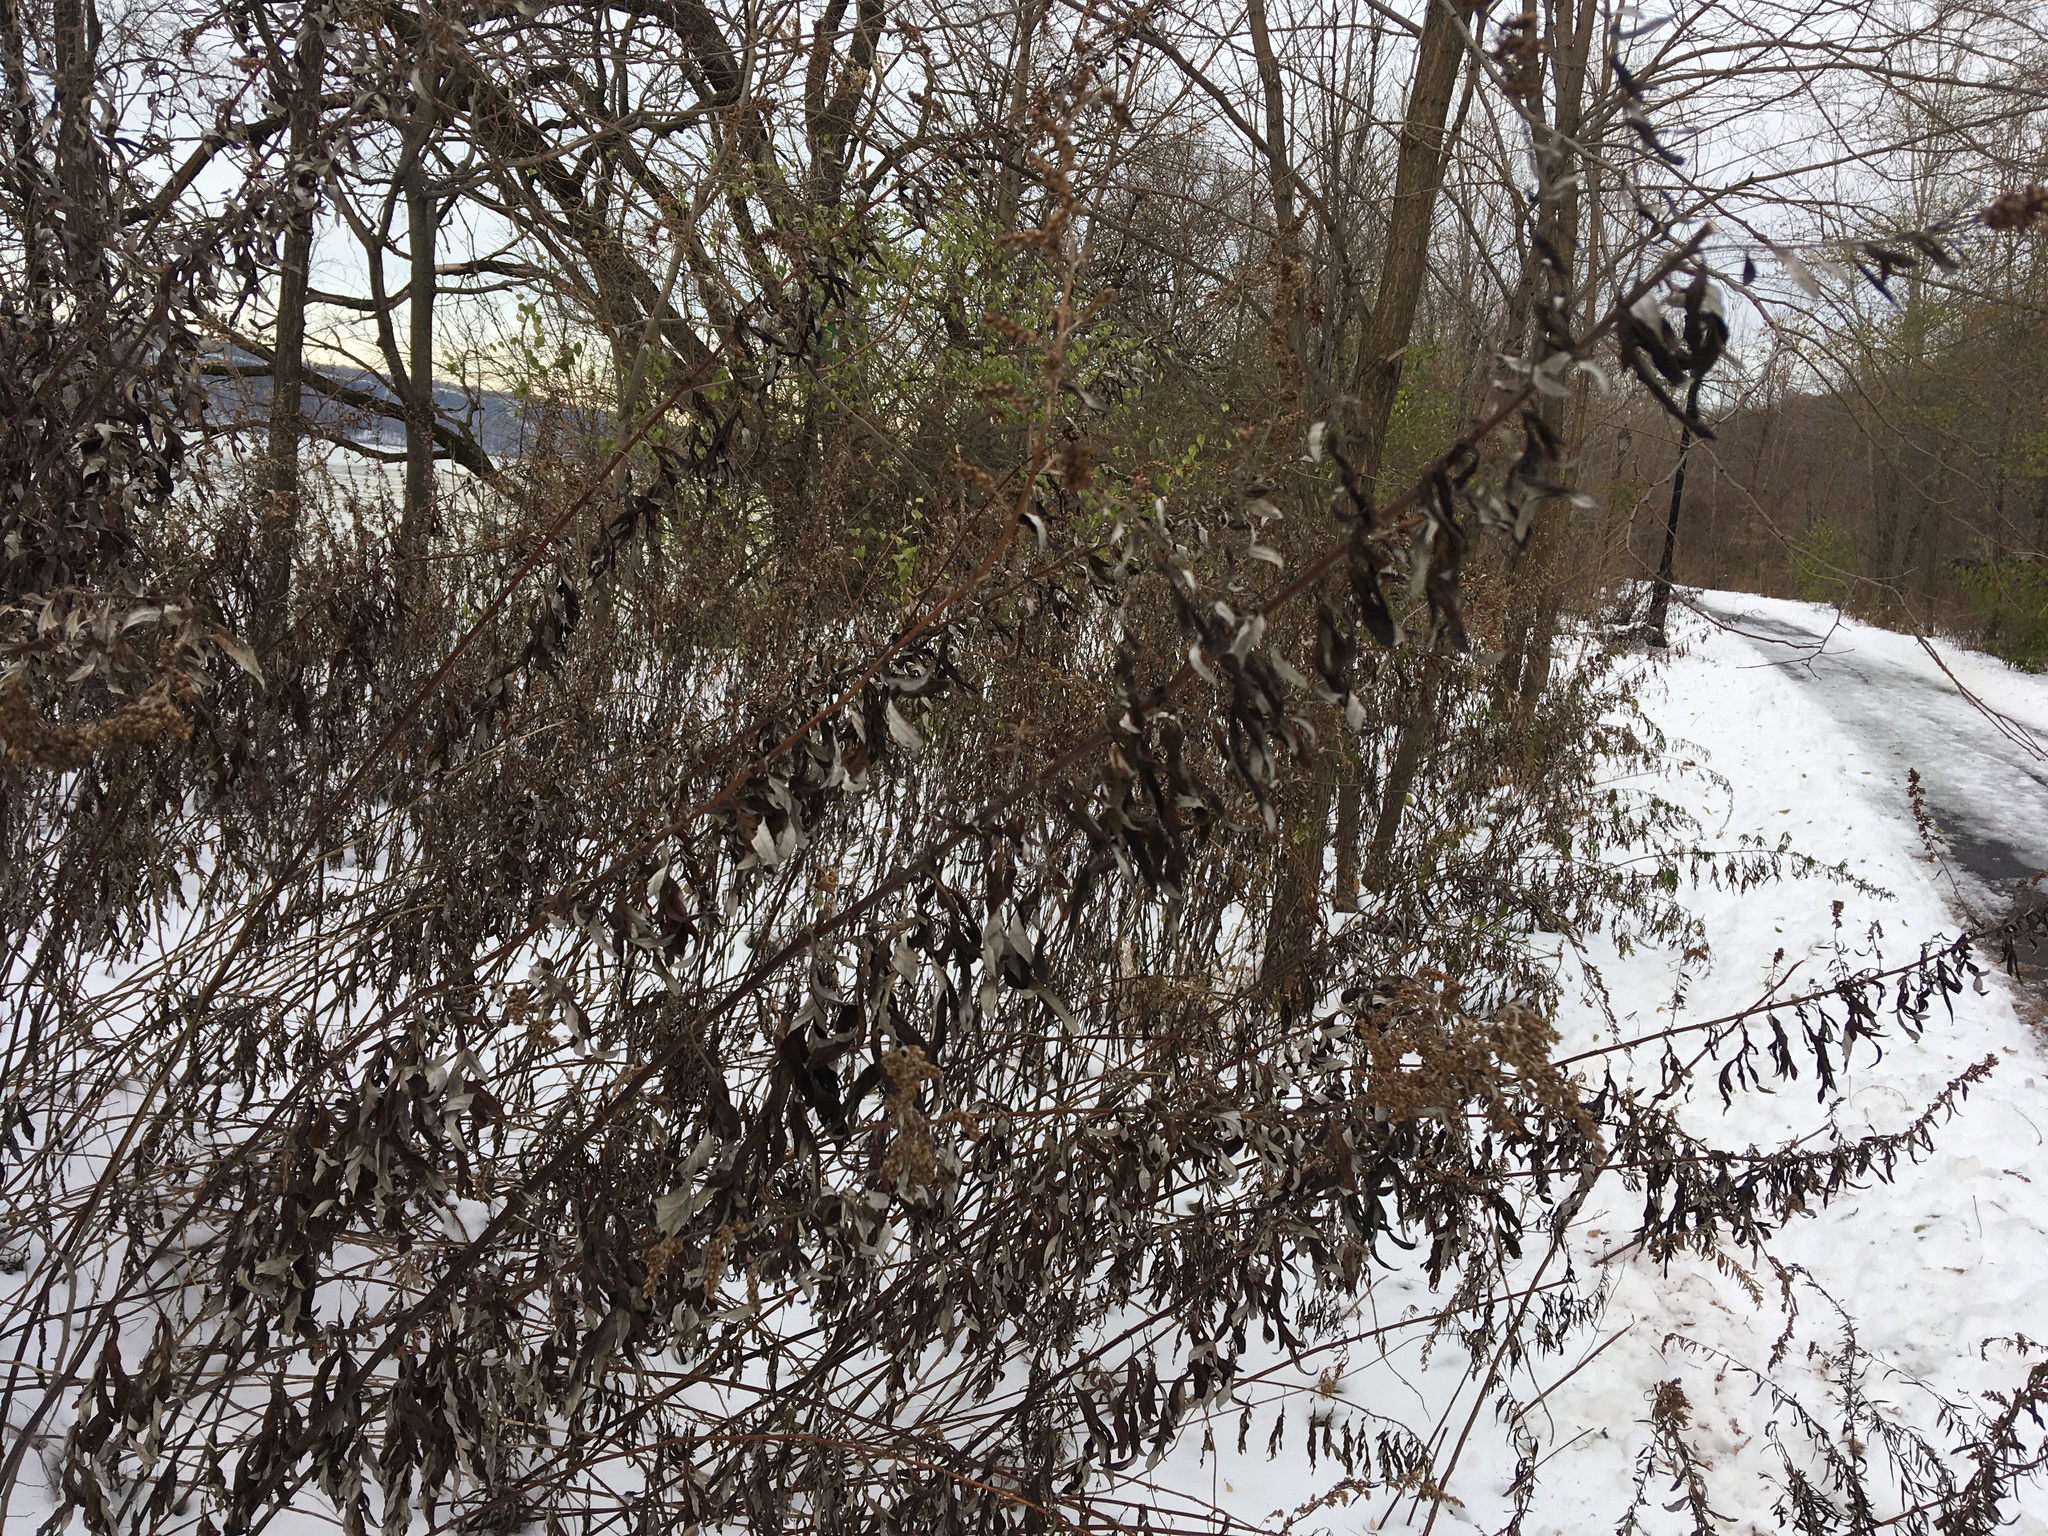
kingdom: Plantae
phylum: Tracheophyta
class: Magnoliopsida
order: Asterales
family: Asteraceae
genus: Artemisia
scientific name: Artemisia vulgaris
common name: Mugwort
